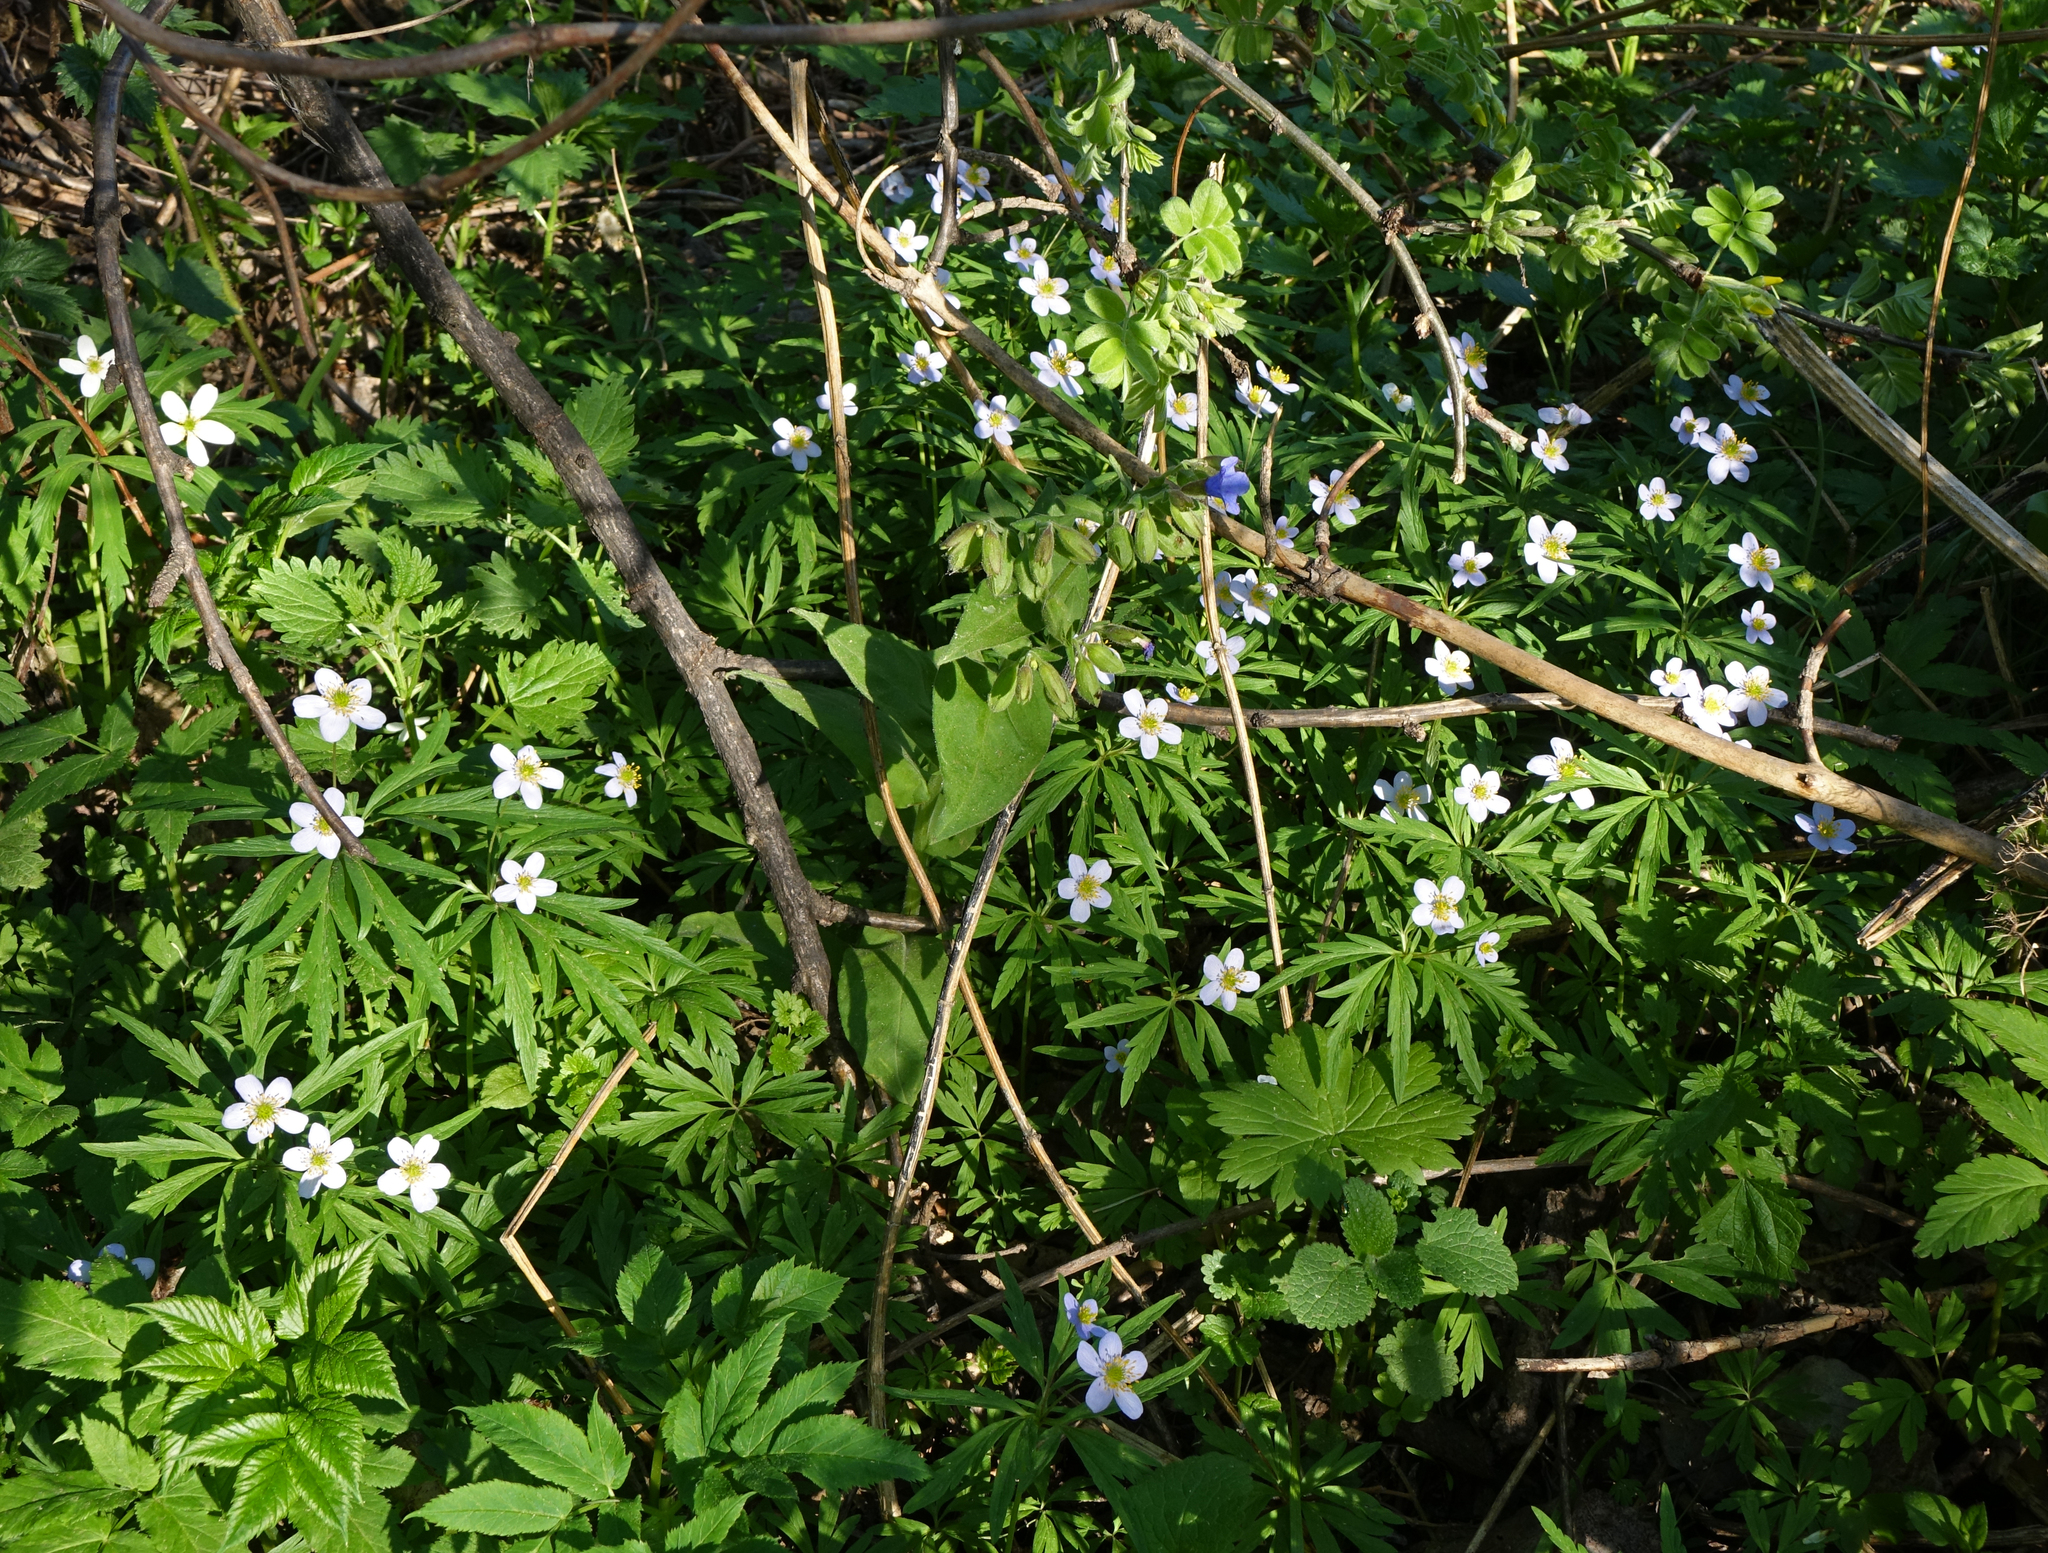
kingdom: Plantae
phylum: Tracheophyta
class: Magnoliopsida
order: Ranunculales
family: Ranunculaceae
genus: Anemone
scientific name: Anemone caerulea
